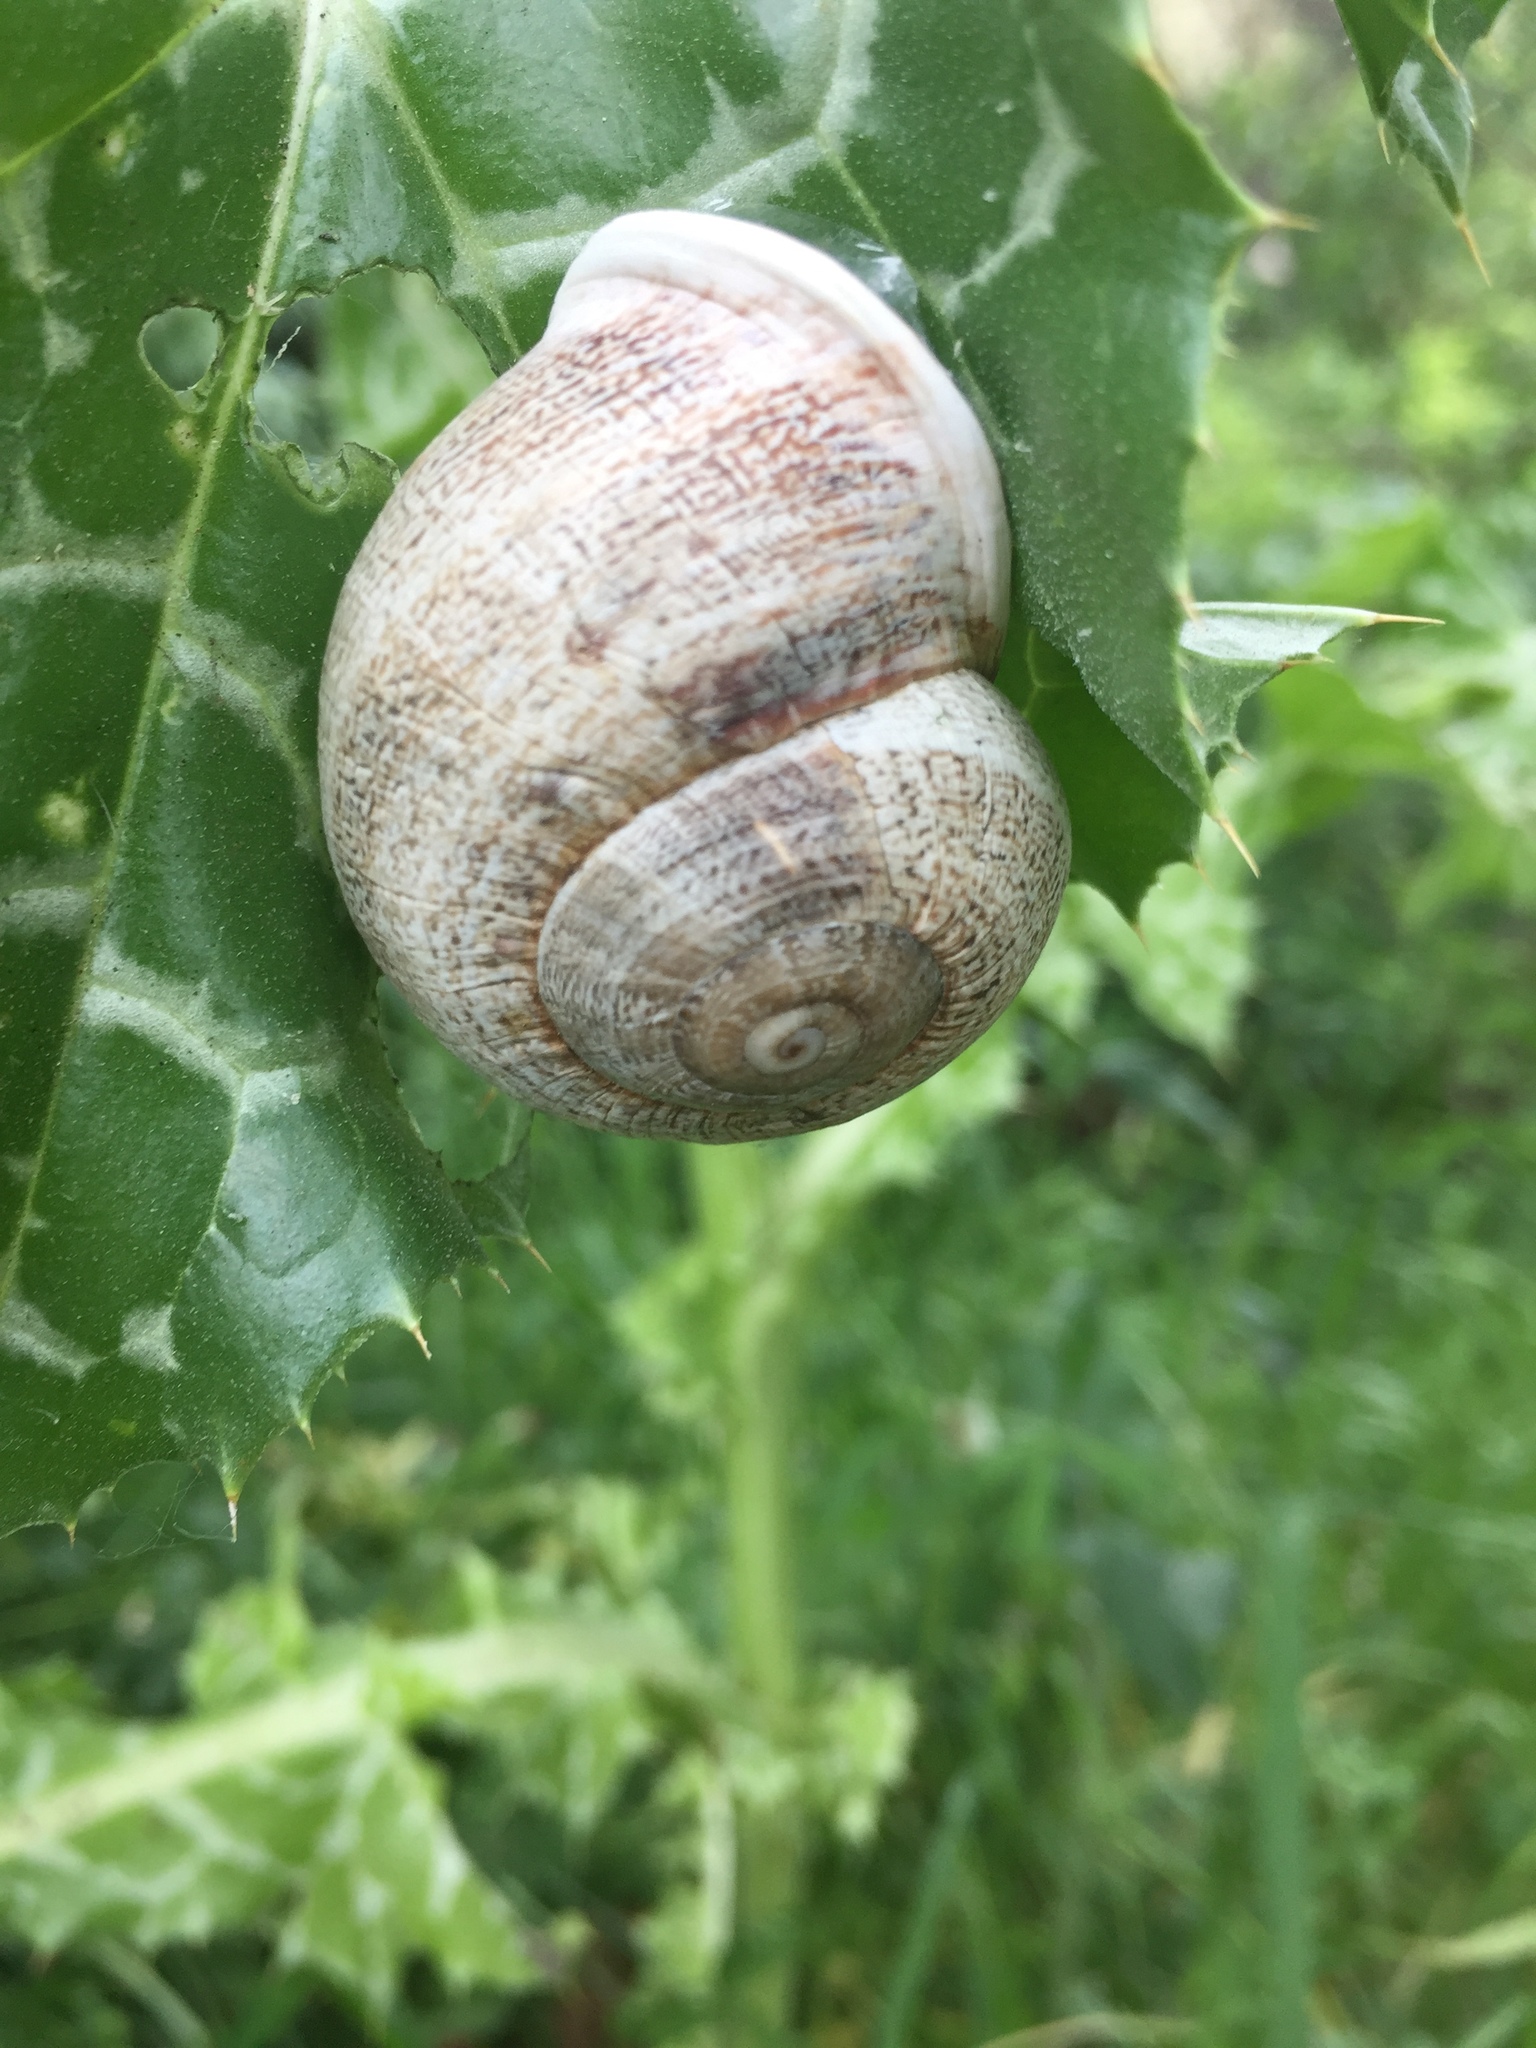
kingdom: Animalia
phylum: Mollusca
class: Gastropoda
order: Stylommatophora
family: Helicidae
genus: Otala
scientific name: Otala lactea
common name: Milk snail
